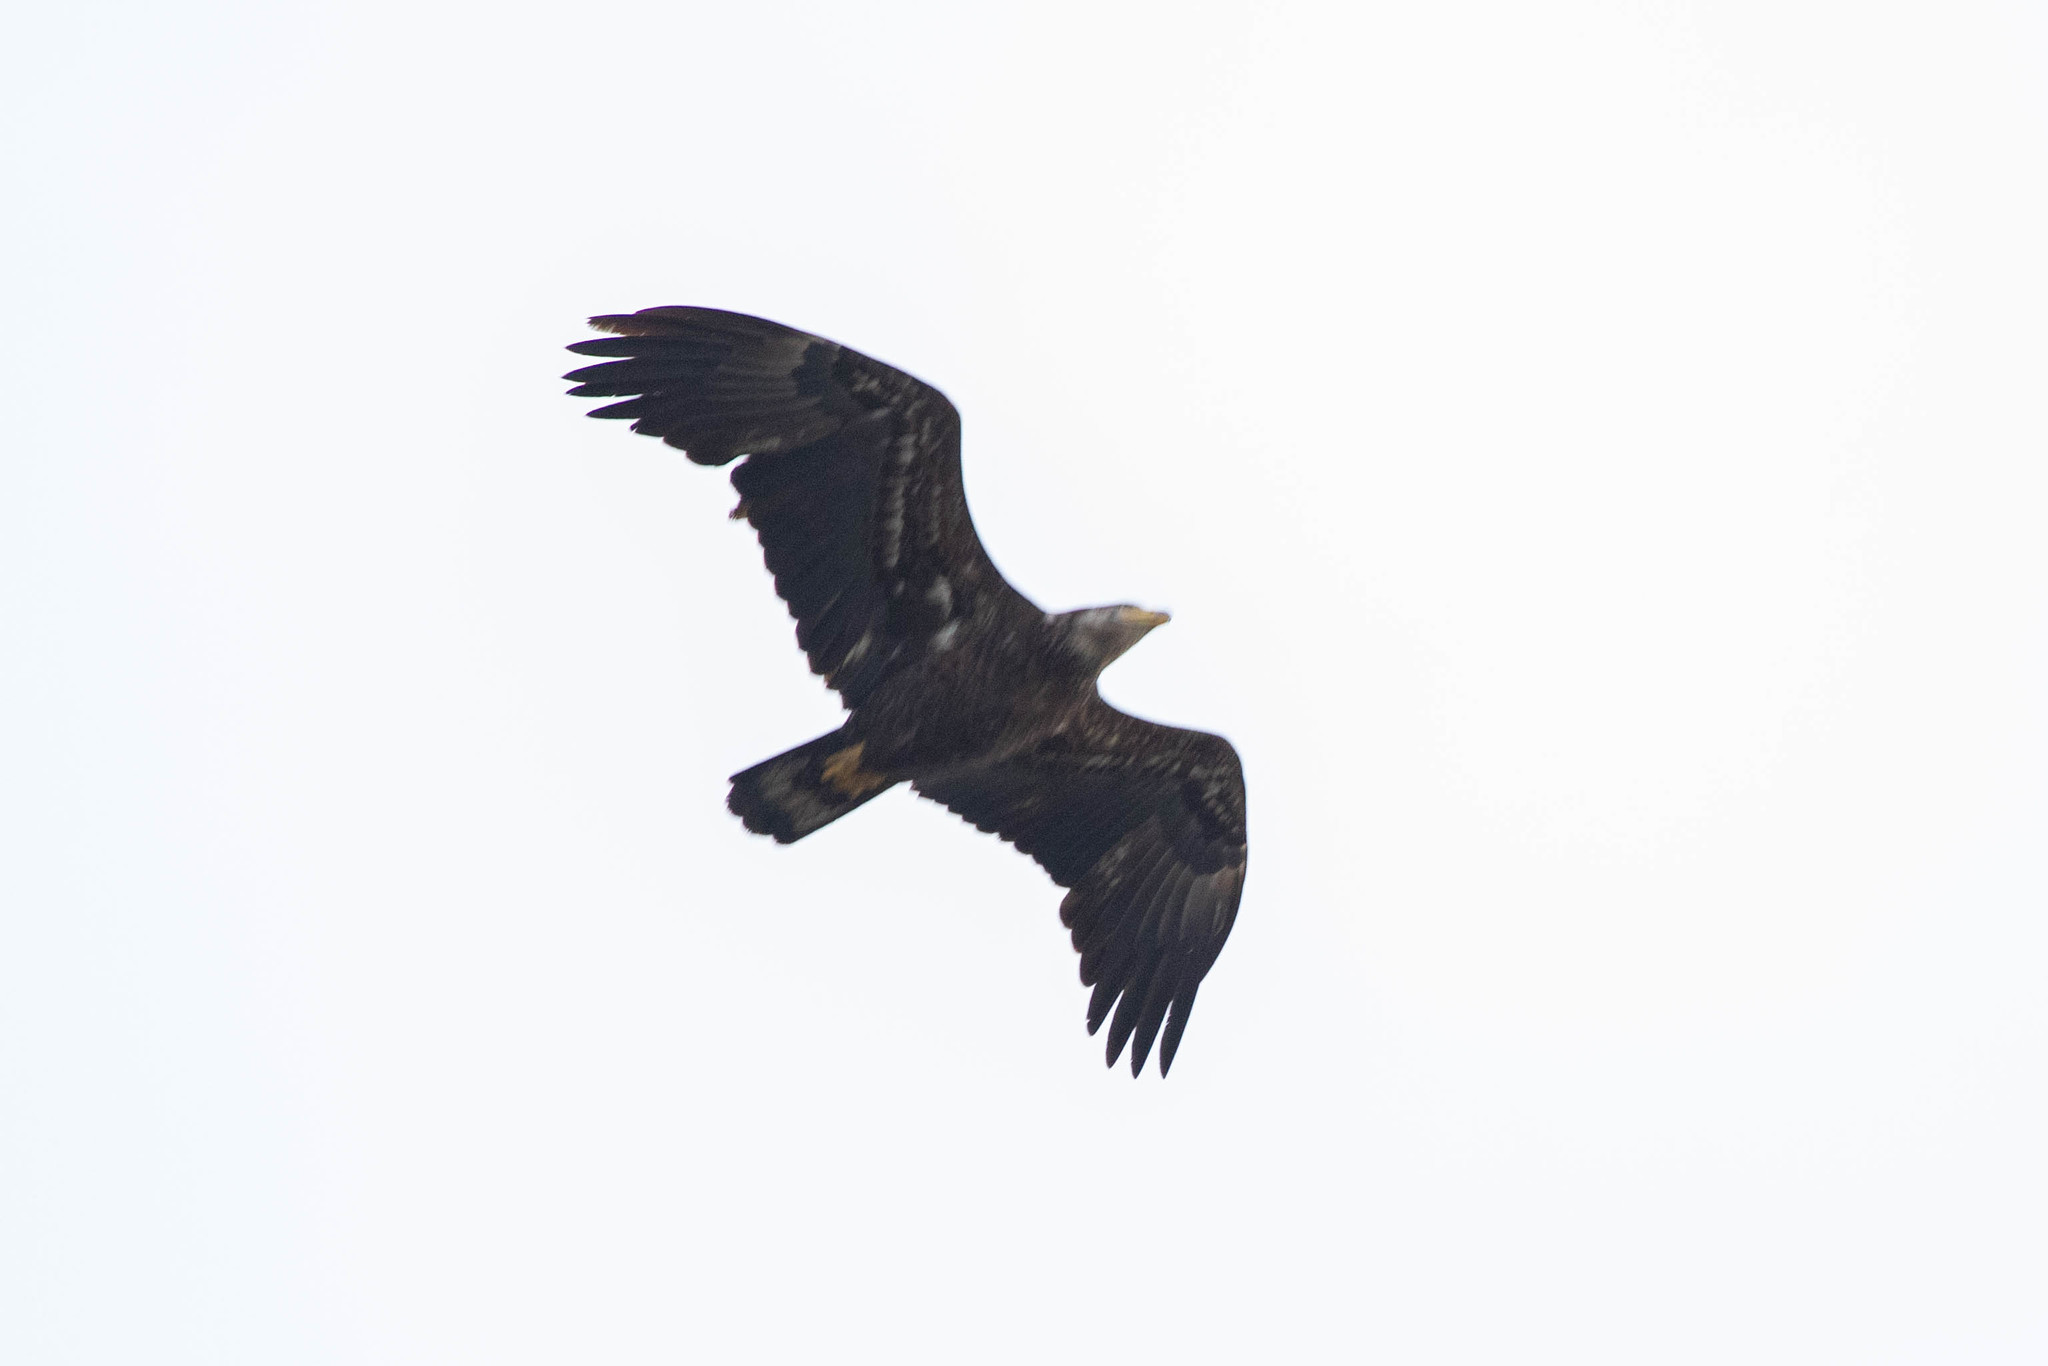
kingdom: Animalia
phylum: Chordata
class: Aves
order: Accipitriformes
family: Accipitridae
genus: Haliaeetus
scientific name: Haliaeetus leucocephalus
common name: Bald eagle
